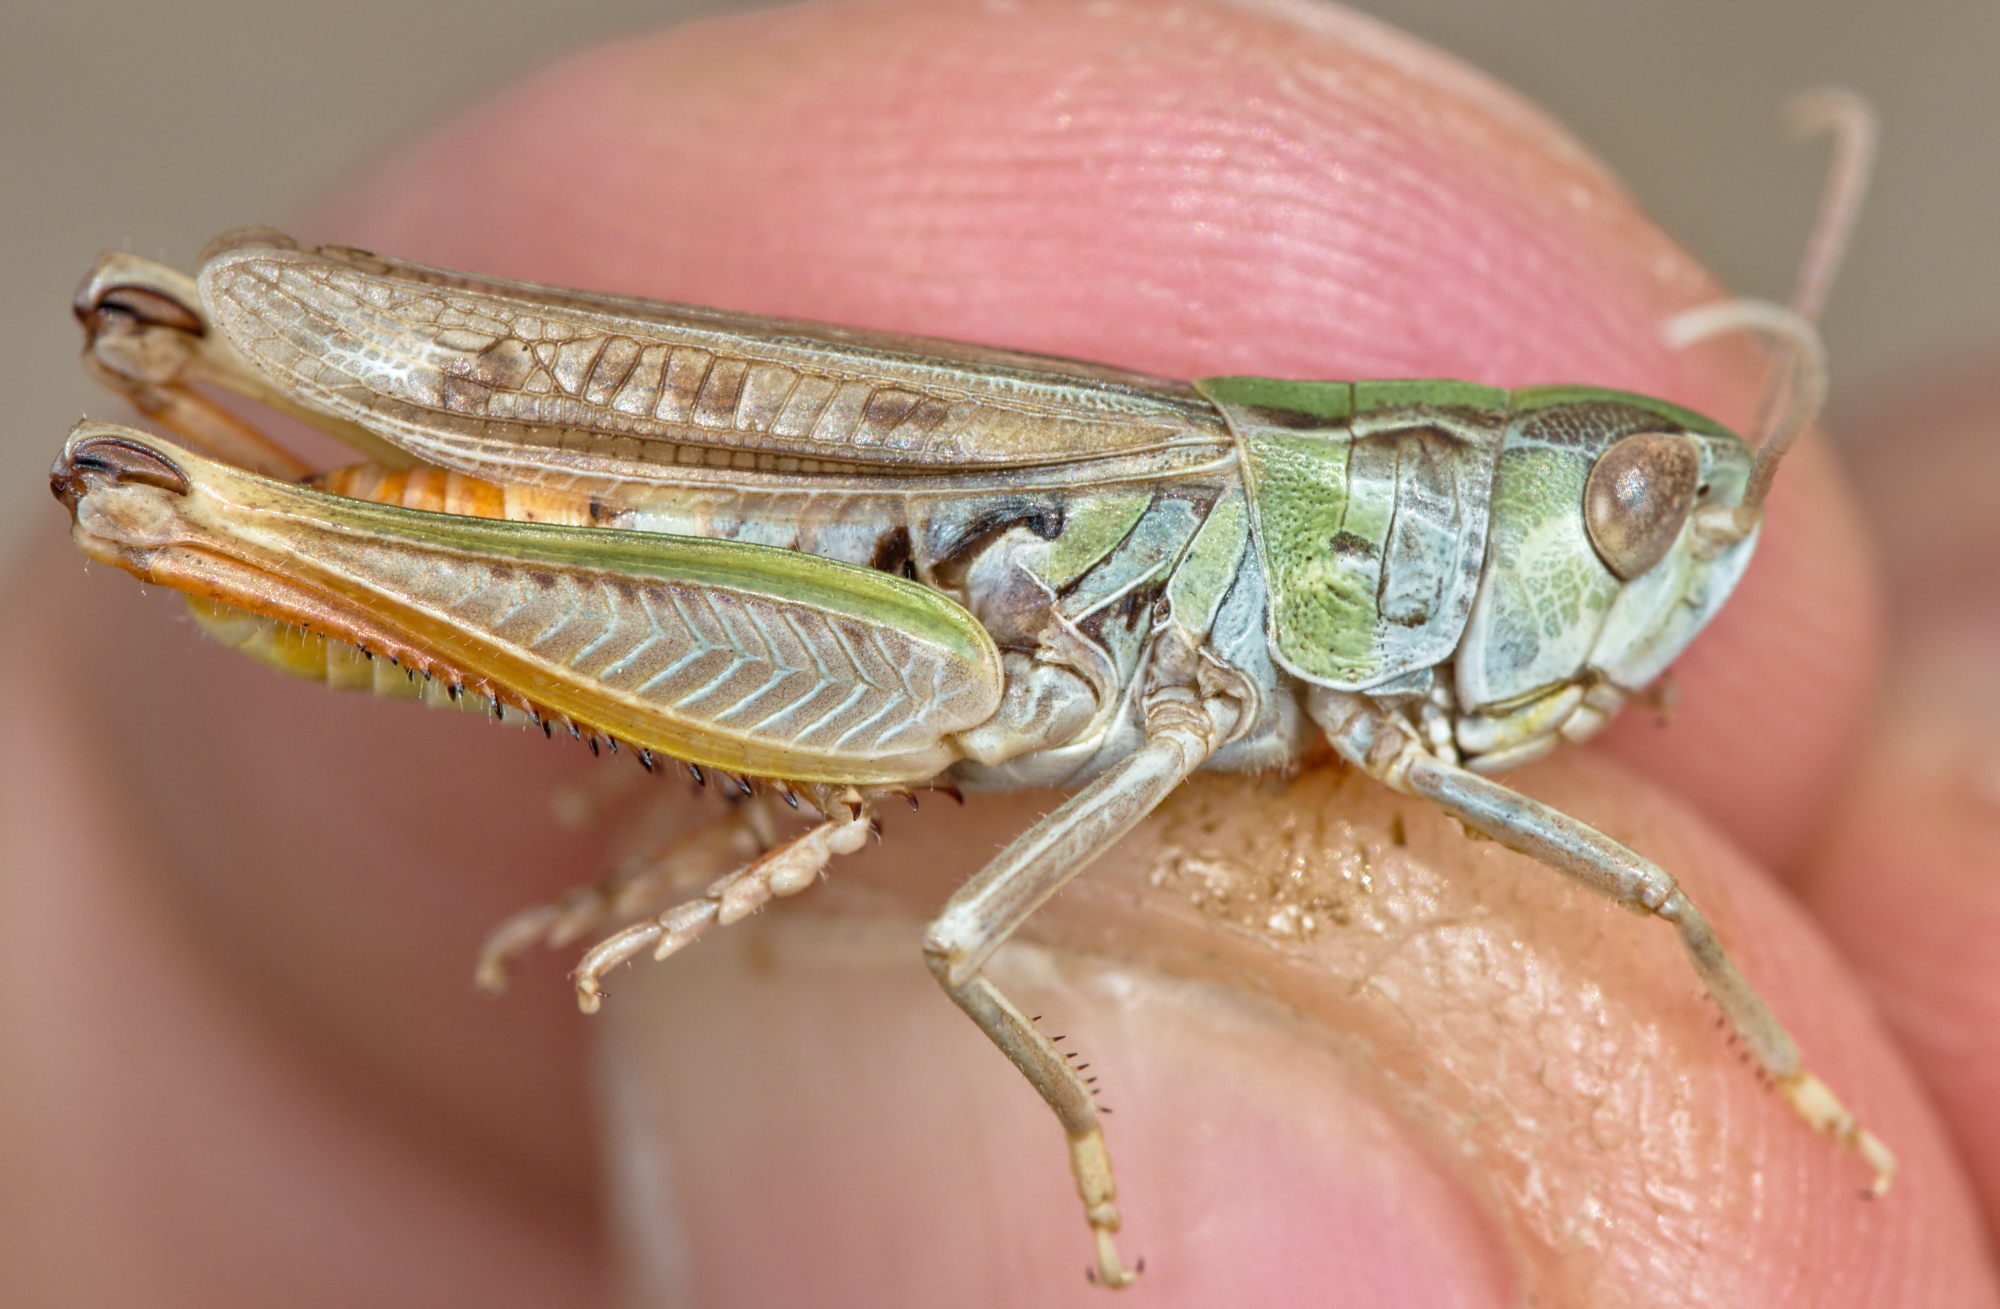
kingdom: Animalia
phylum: Arthropoda
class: Insecta
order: Orthoptera
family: Acrididae
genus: Stenobothrus
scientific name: Stenobothrus nigromaculatus
